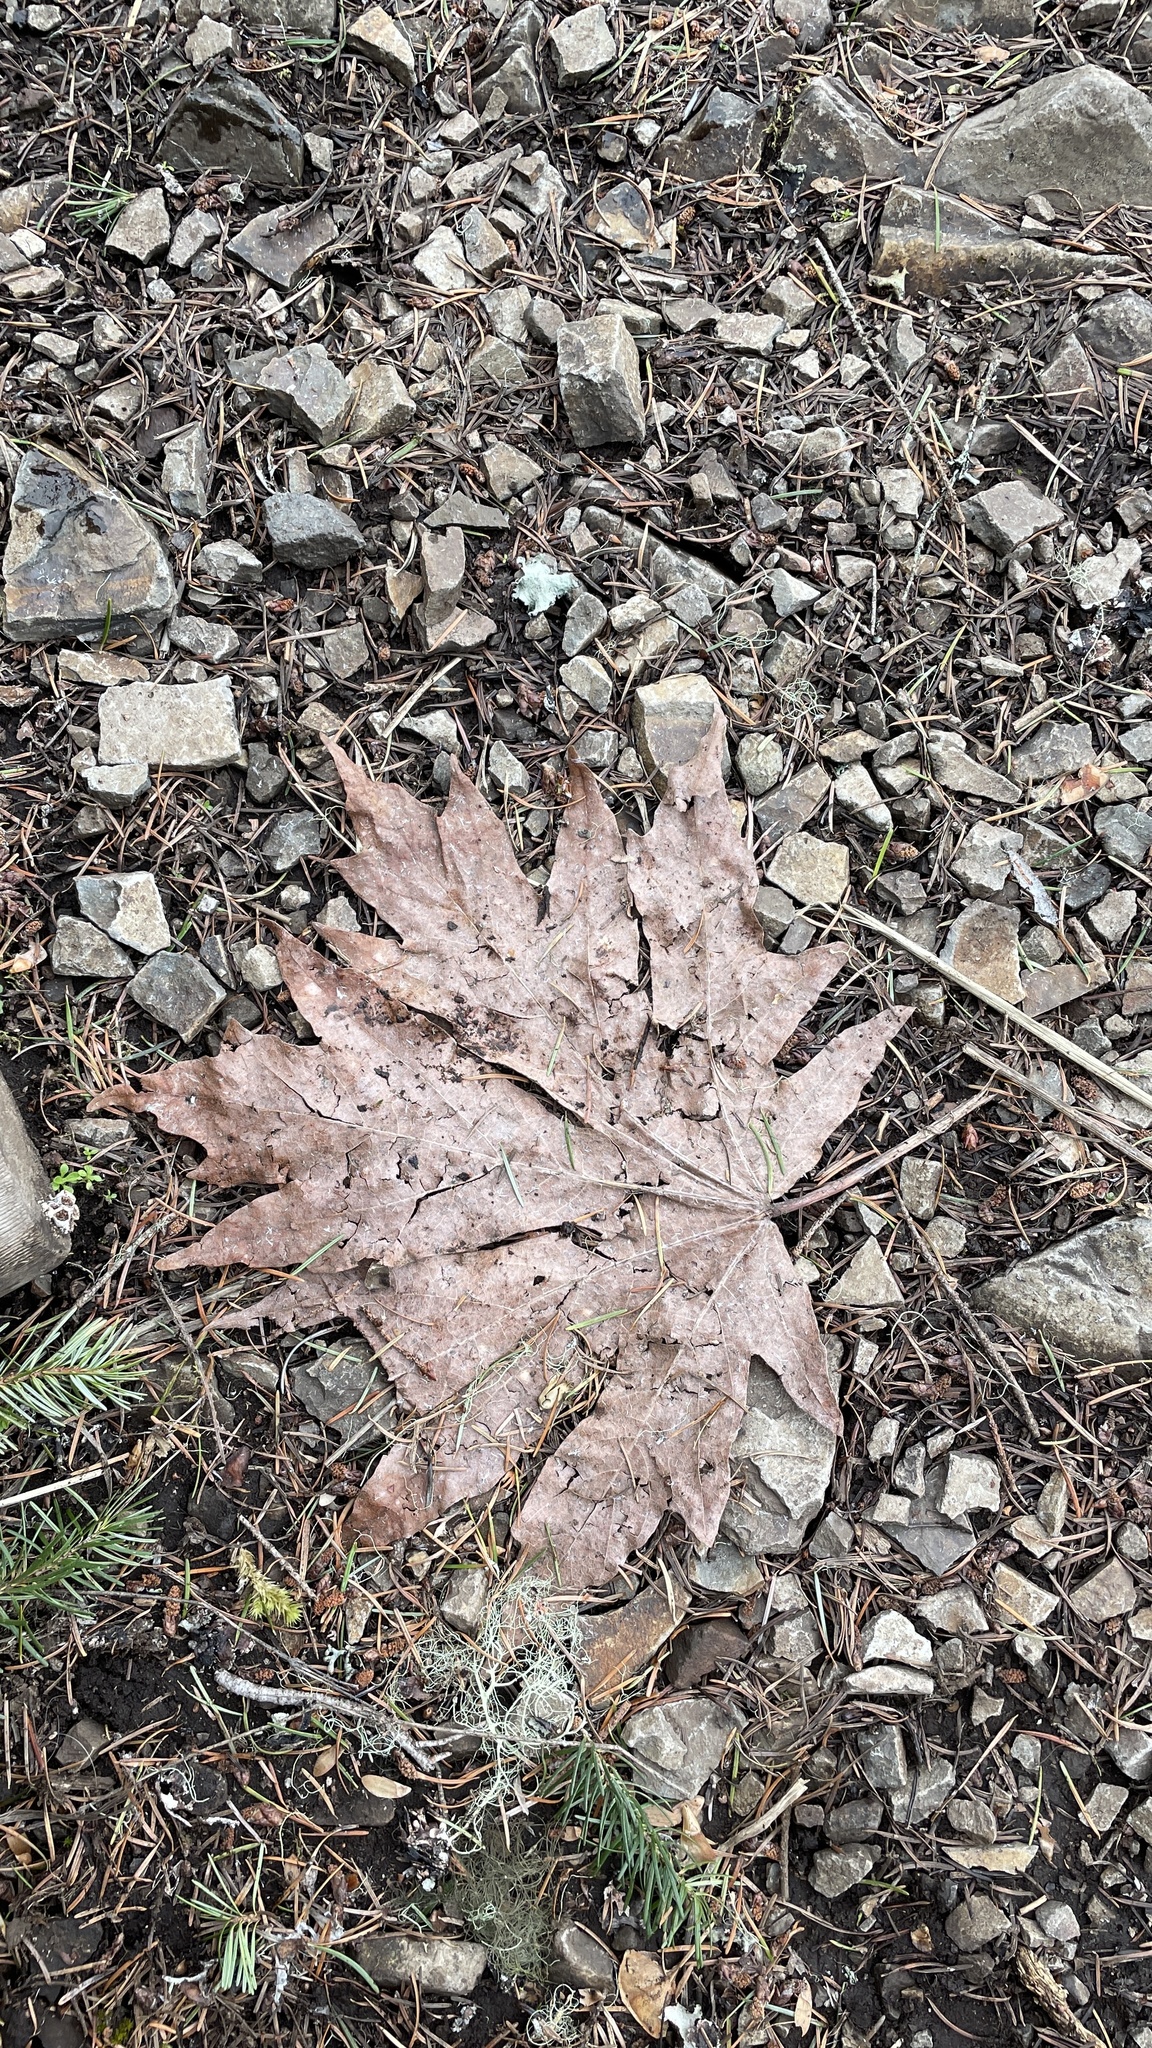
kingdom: Plantae
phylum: Tracheophyta
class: Magnoliopsida
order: Sapindales
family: Sapindaceae
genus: Acer
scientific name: Acer macrophyllum
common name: Oregon maple
